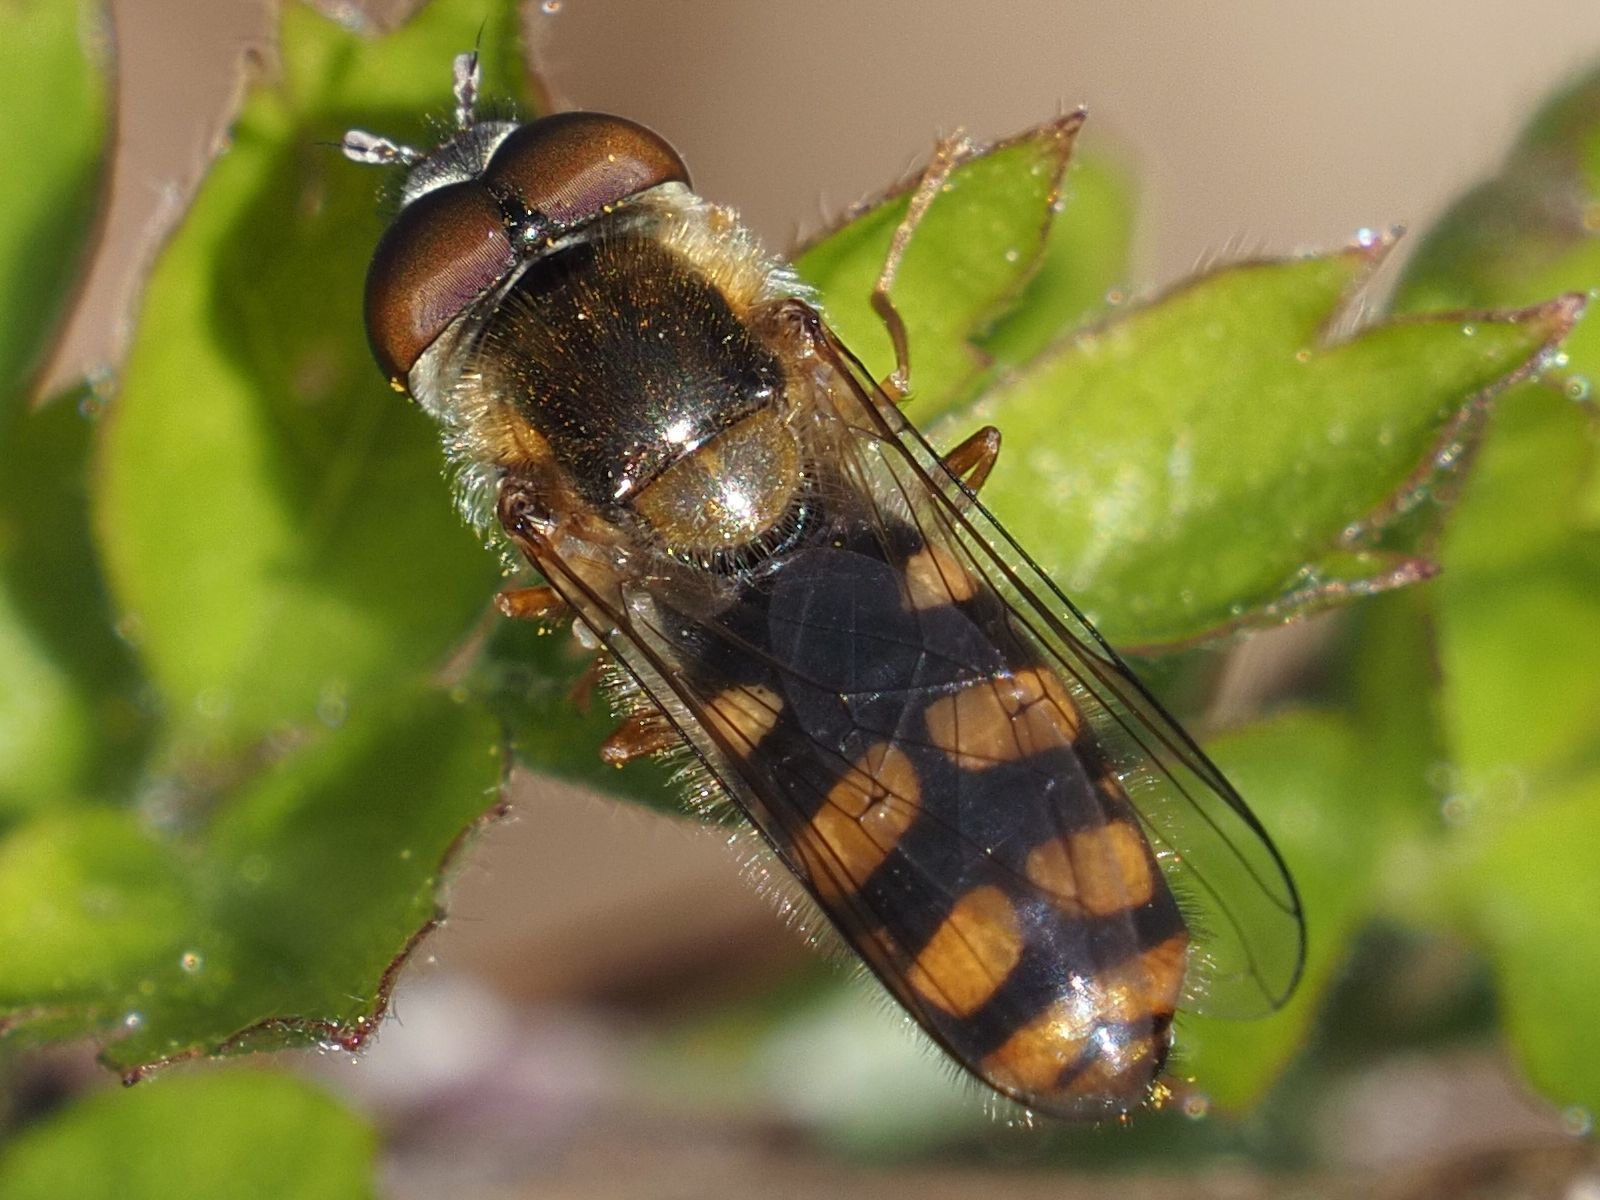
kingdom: Animalia
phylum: Arthropoda
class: Insecta
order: Diptera
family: Syrphidae
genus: Epistrophella
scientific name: Epistrophella euchromus
